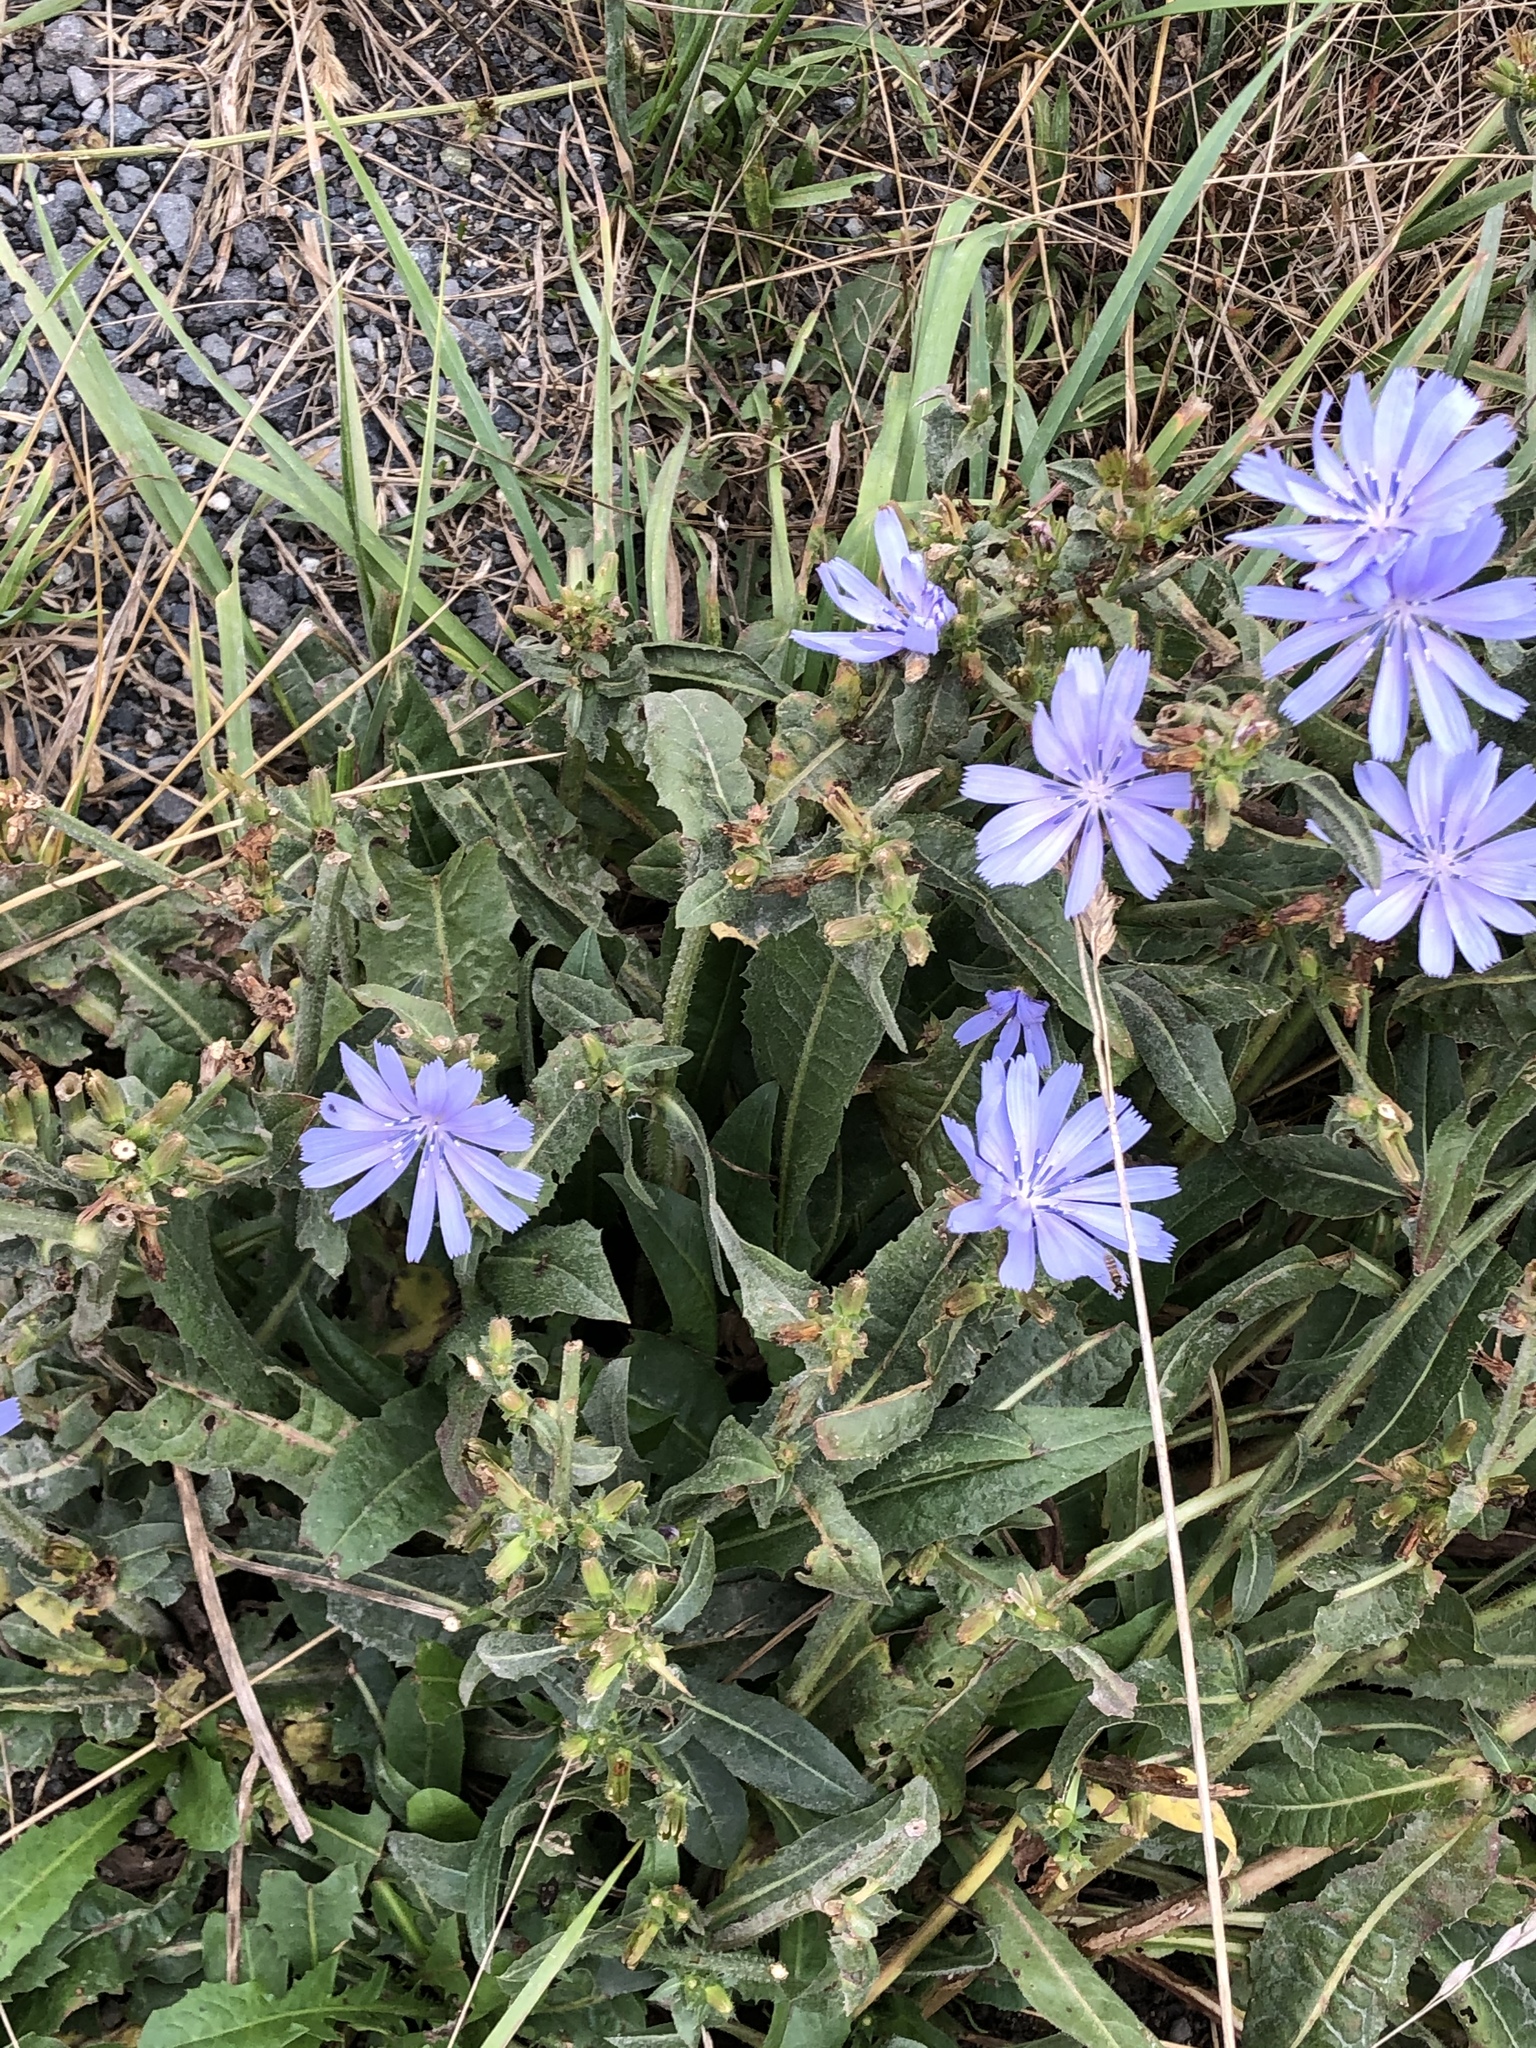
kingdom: Plantae
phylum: Tracheophyta
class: Magnoliopsida
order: Asterales
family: Asteraceae
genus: Cichorium
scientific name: Cichorium intybus
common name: Chicory
